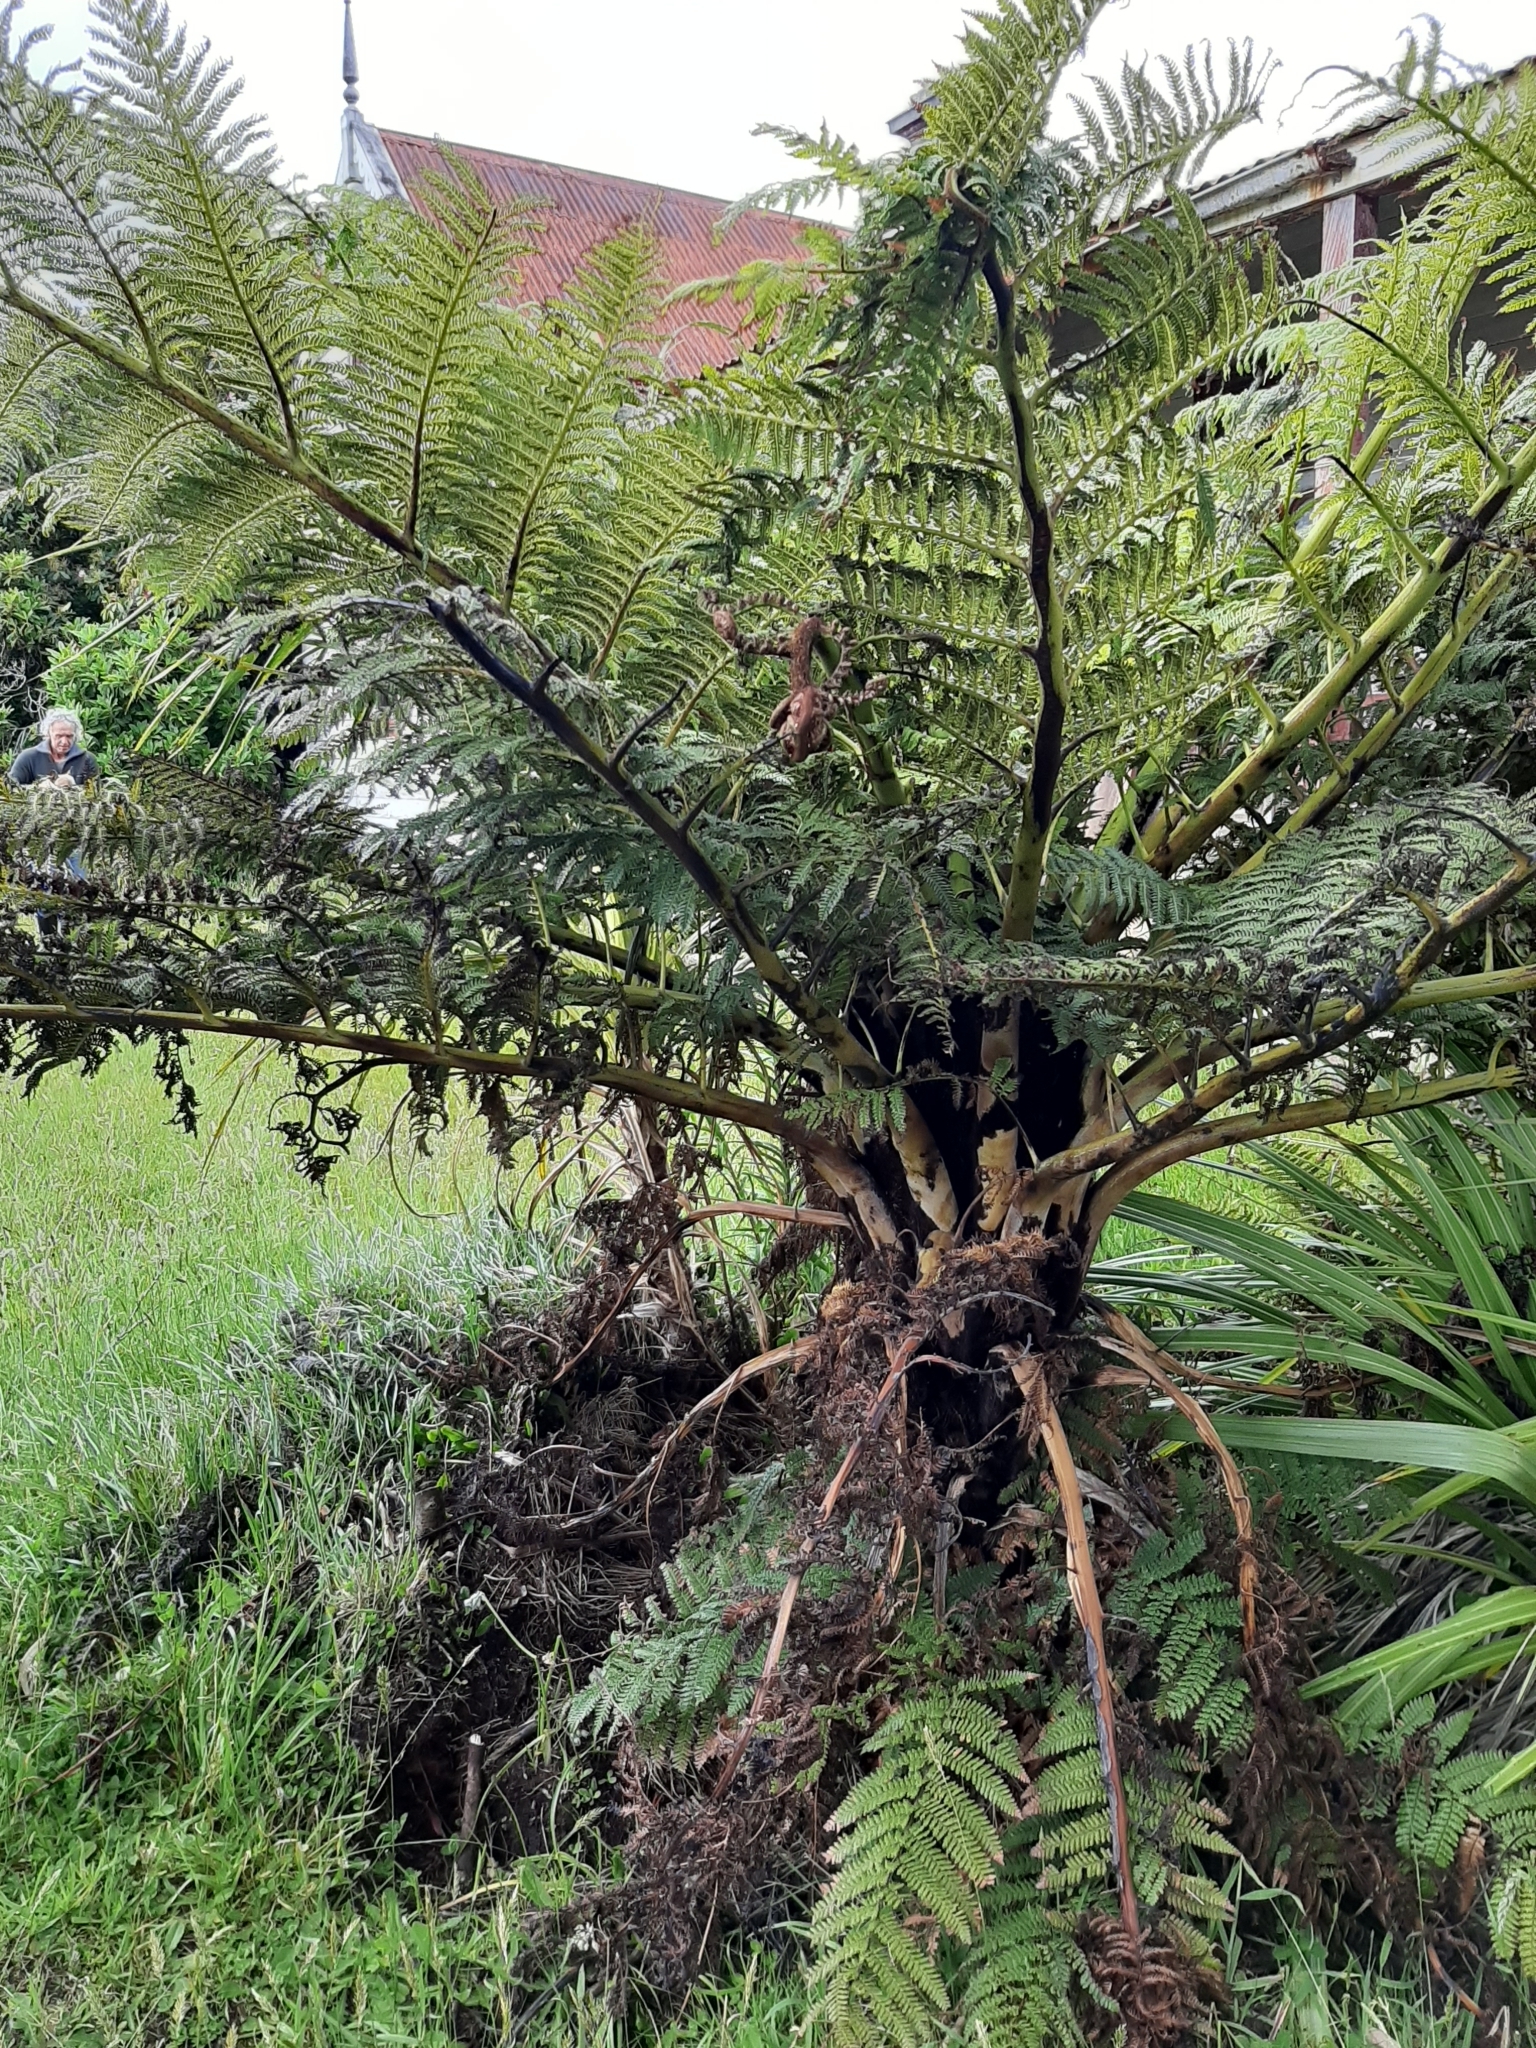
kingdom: Plantae
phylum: Tracheophyta
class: Polypodiopsida
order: Cyatheales
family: Cyatheaceae
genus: Sphaeropteris
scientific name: Sphaeropteris medullaris
